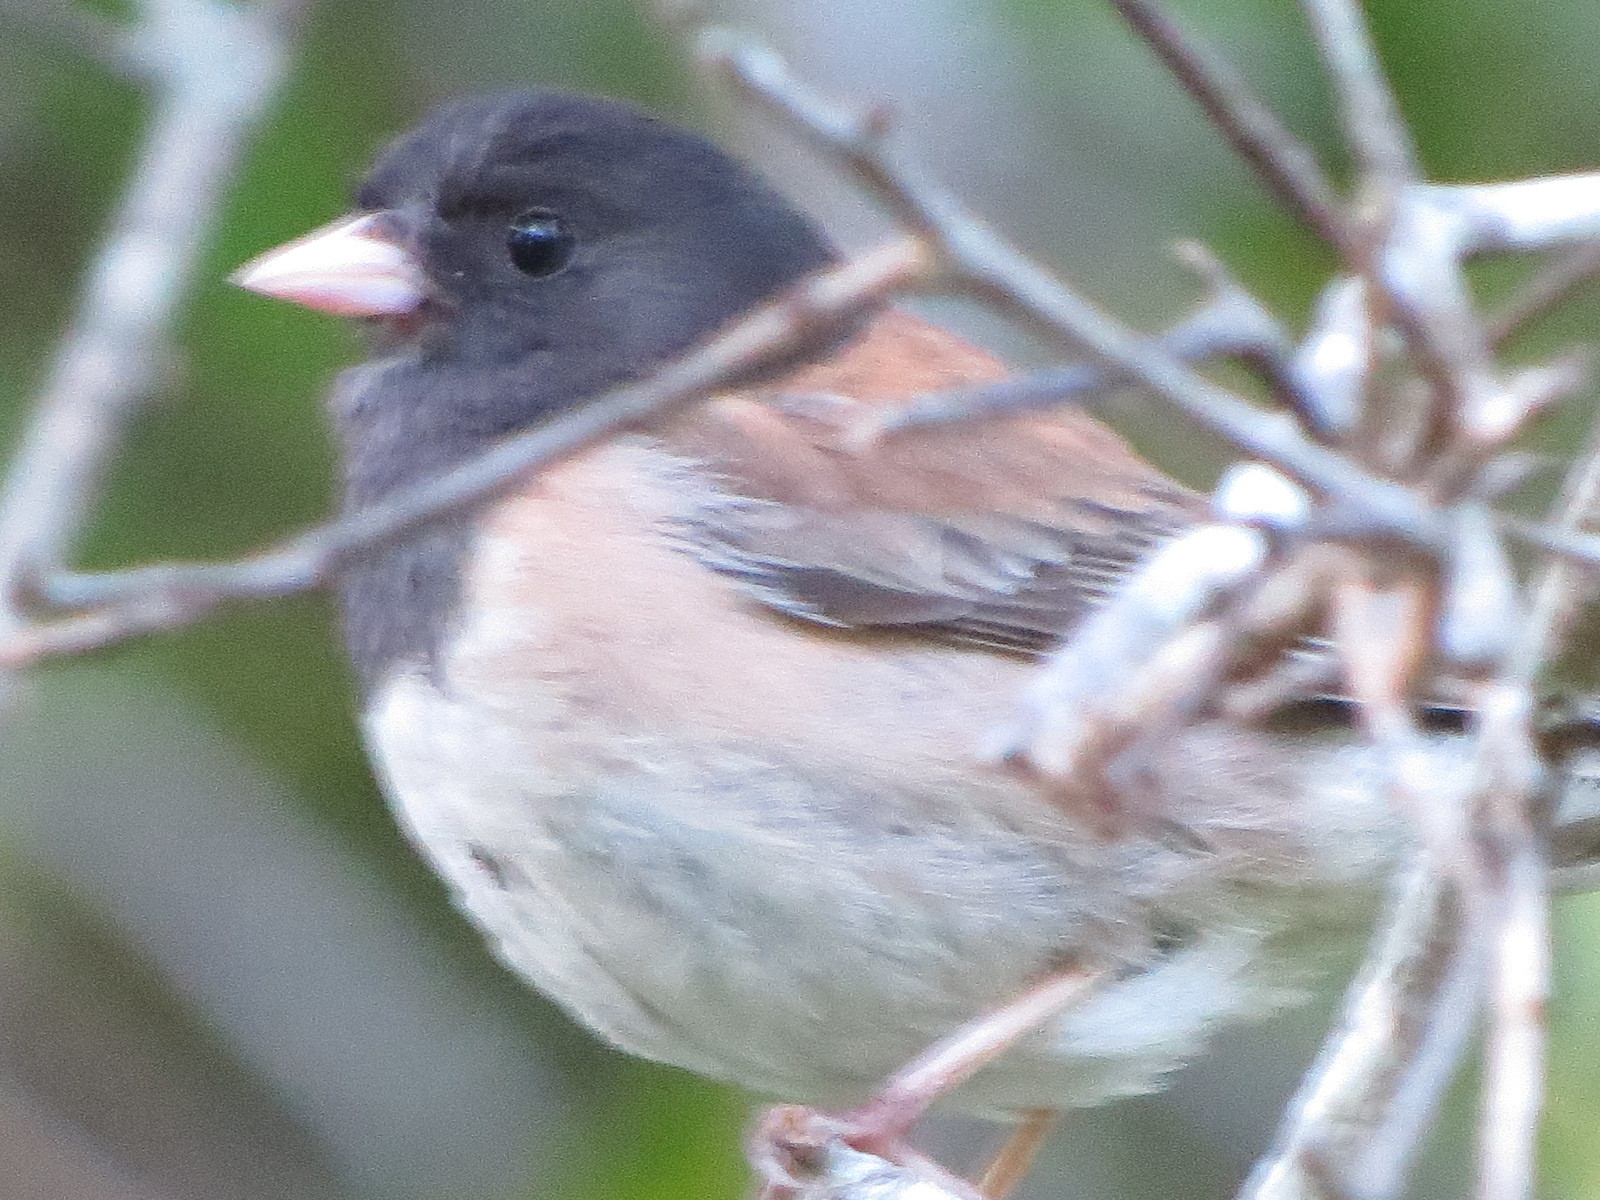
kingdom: Animalia
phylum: Chordata
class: Aves
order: Passeriformes
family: Passerellidae
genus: Junco
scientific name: Junco hyemalis
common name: Dark-eyed junco
